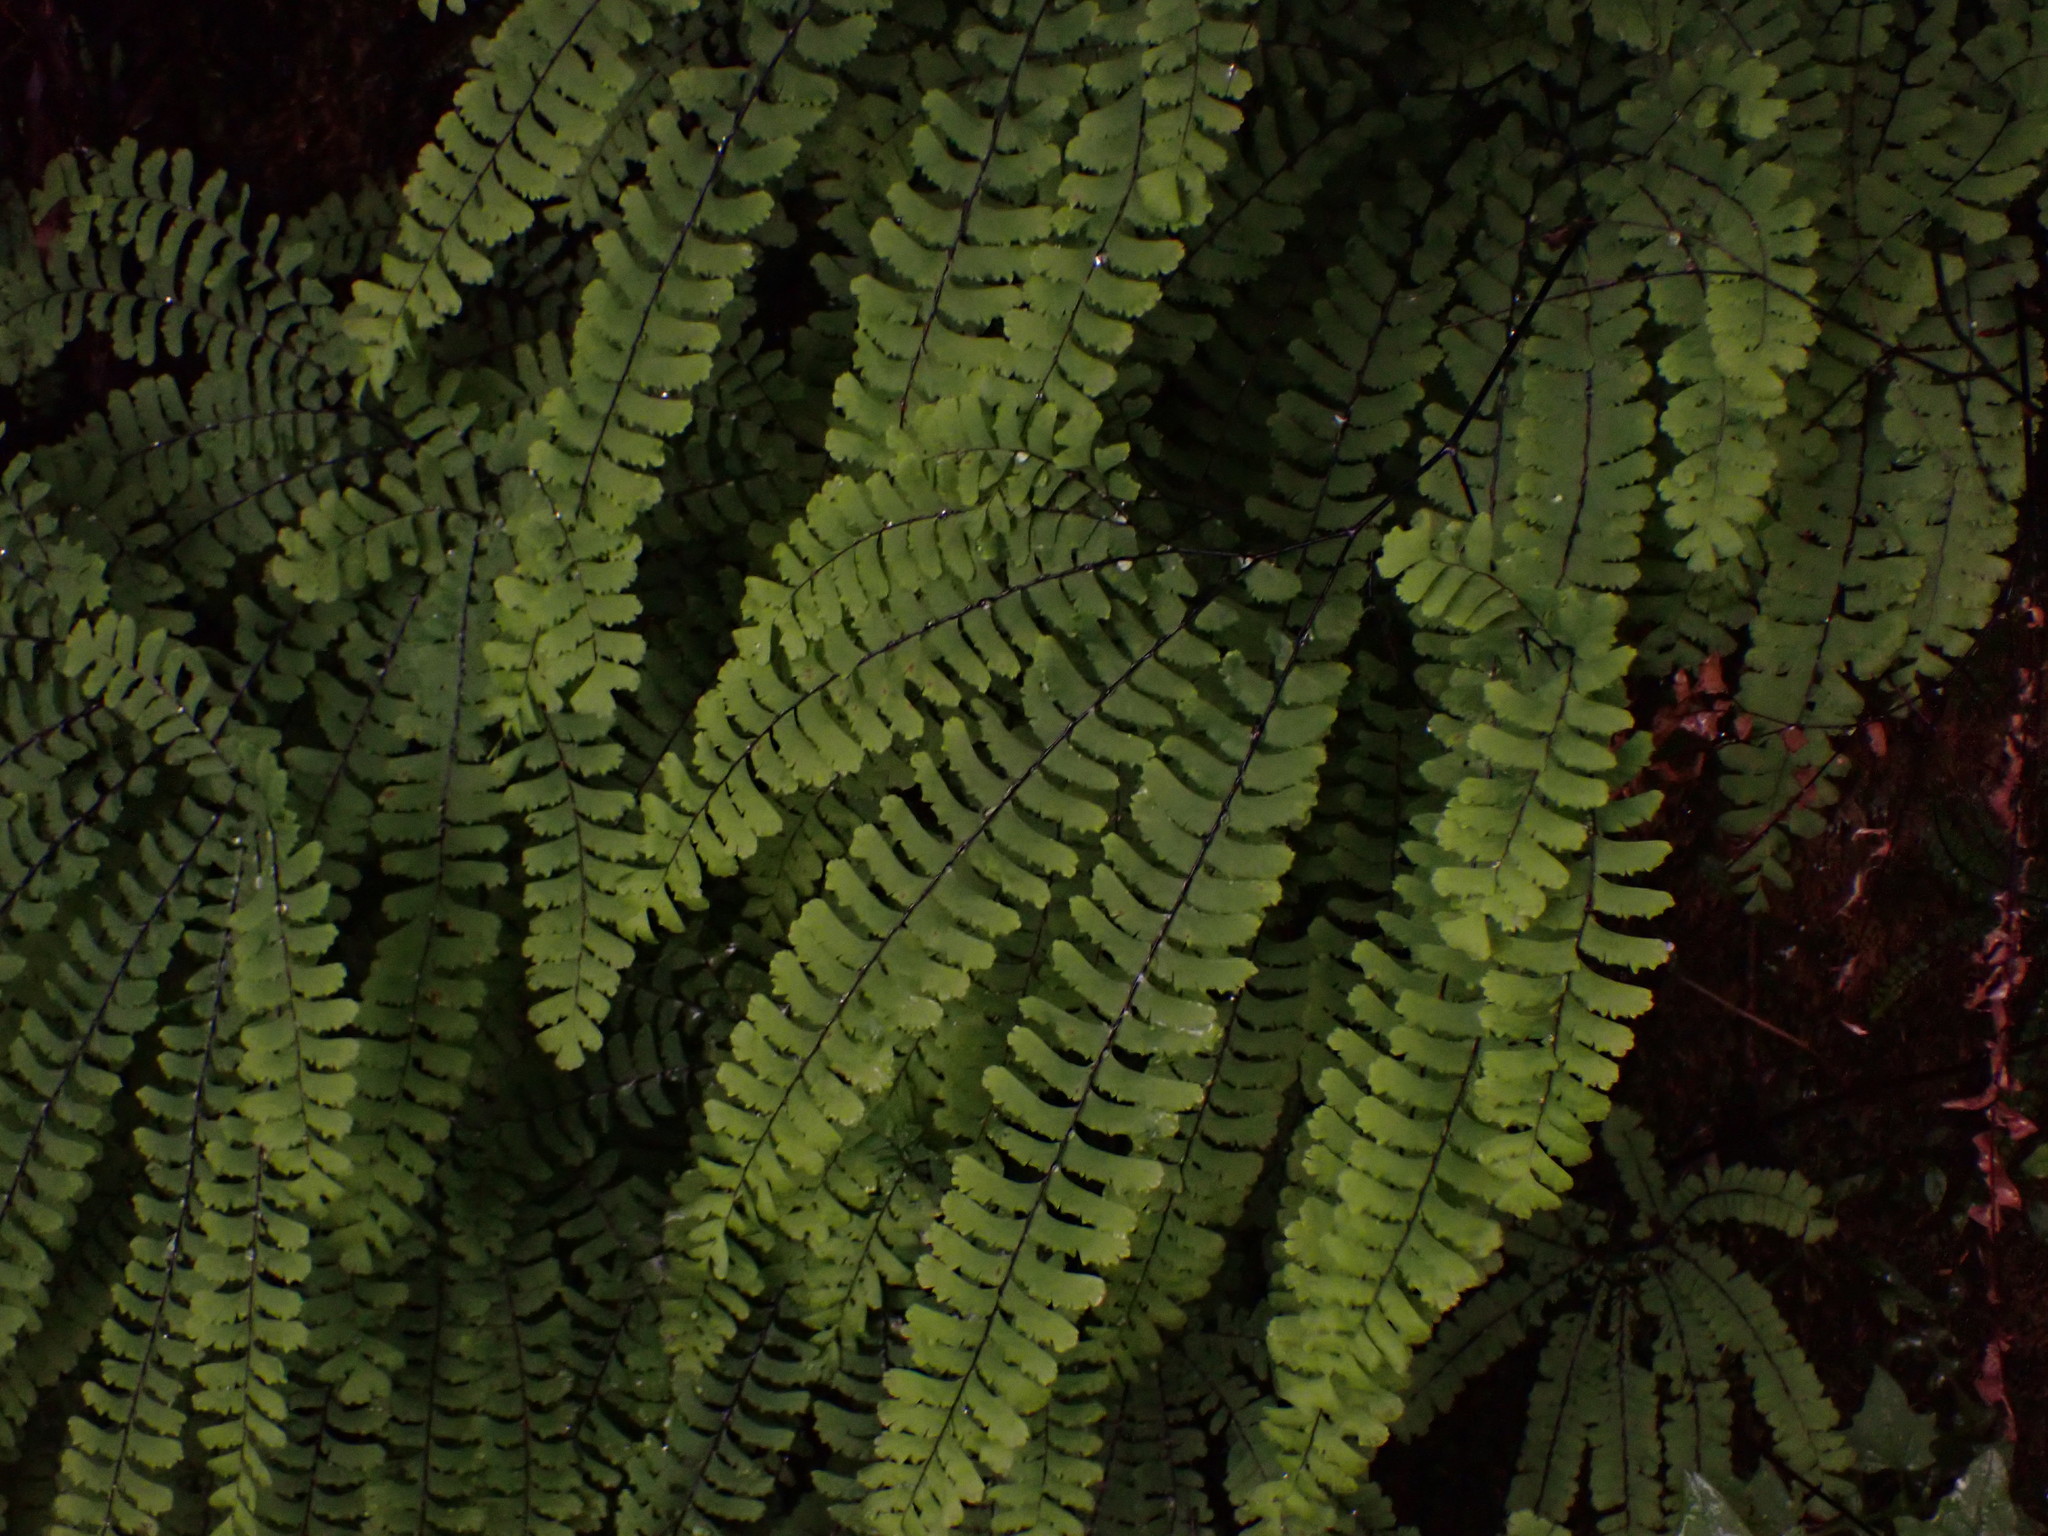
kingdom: Plantae
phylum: Tracheophyta
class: Polypodiopsida
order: Polypodiales
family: Pteridaceae
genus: Adiantum
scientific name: Adiantum aleuticum
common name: Aleutian maidenhair fern
